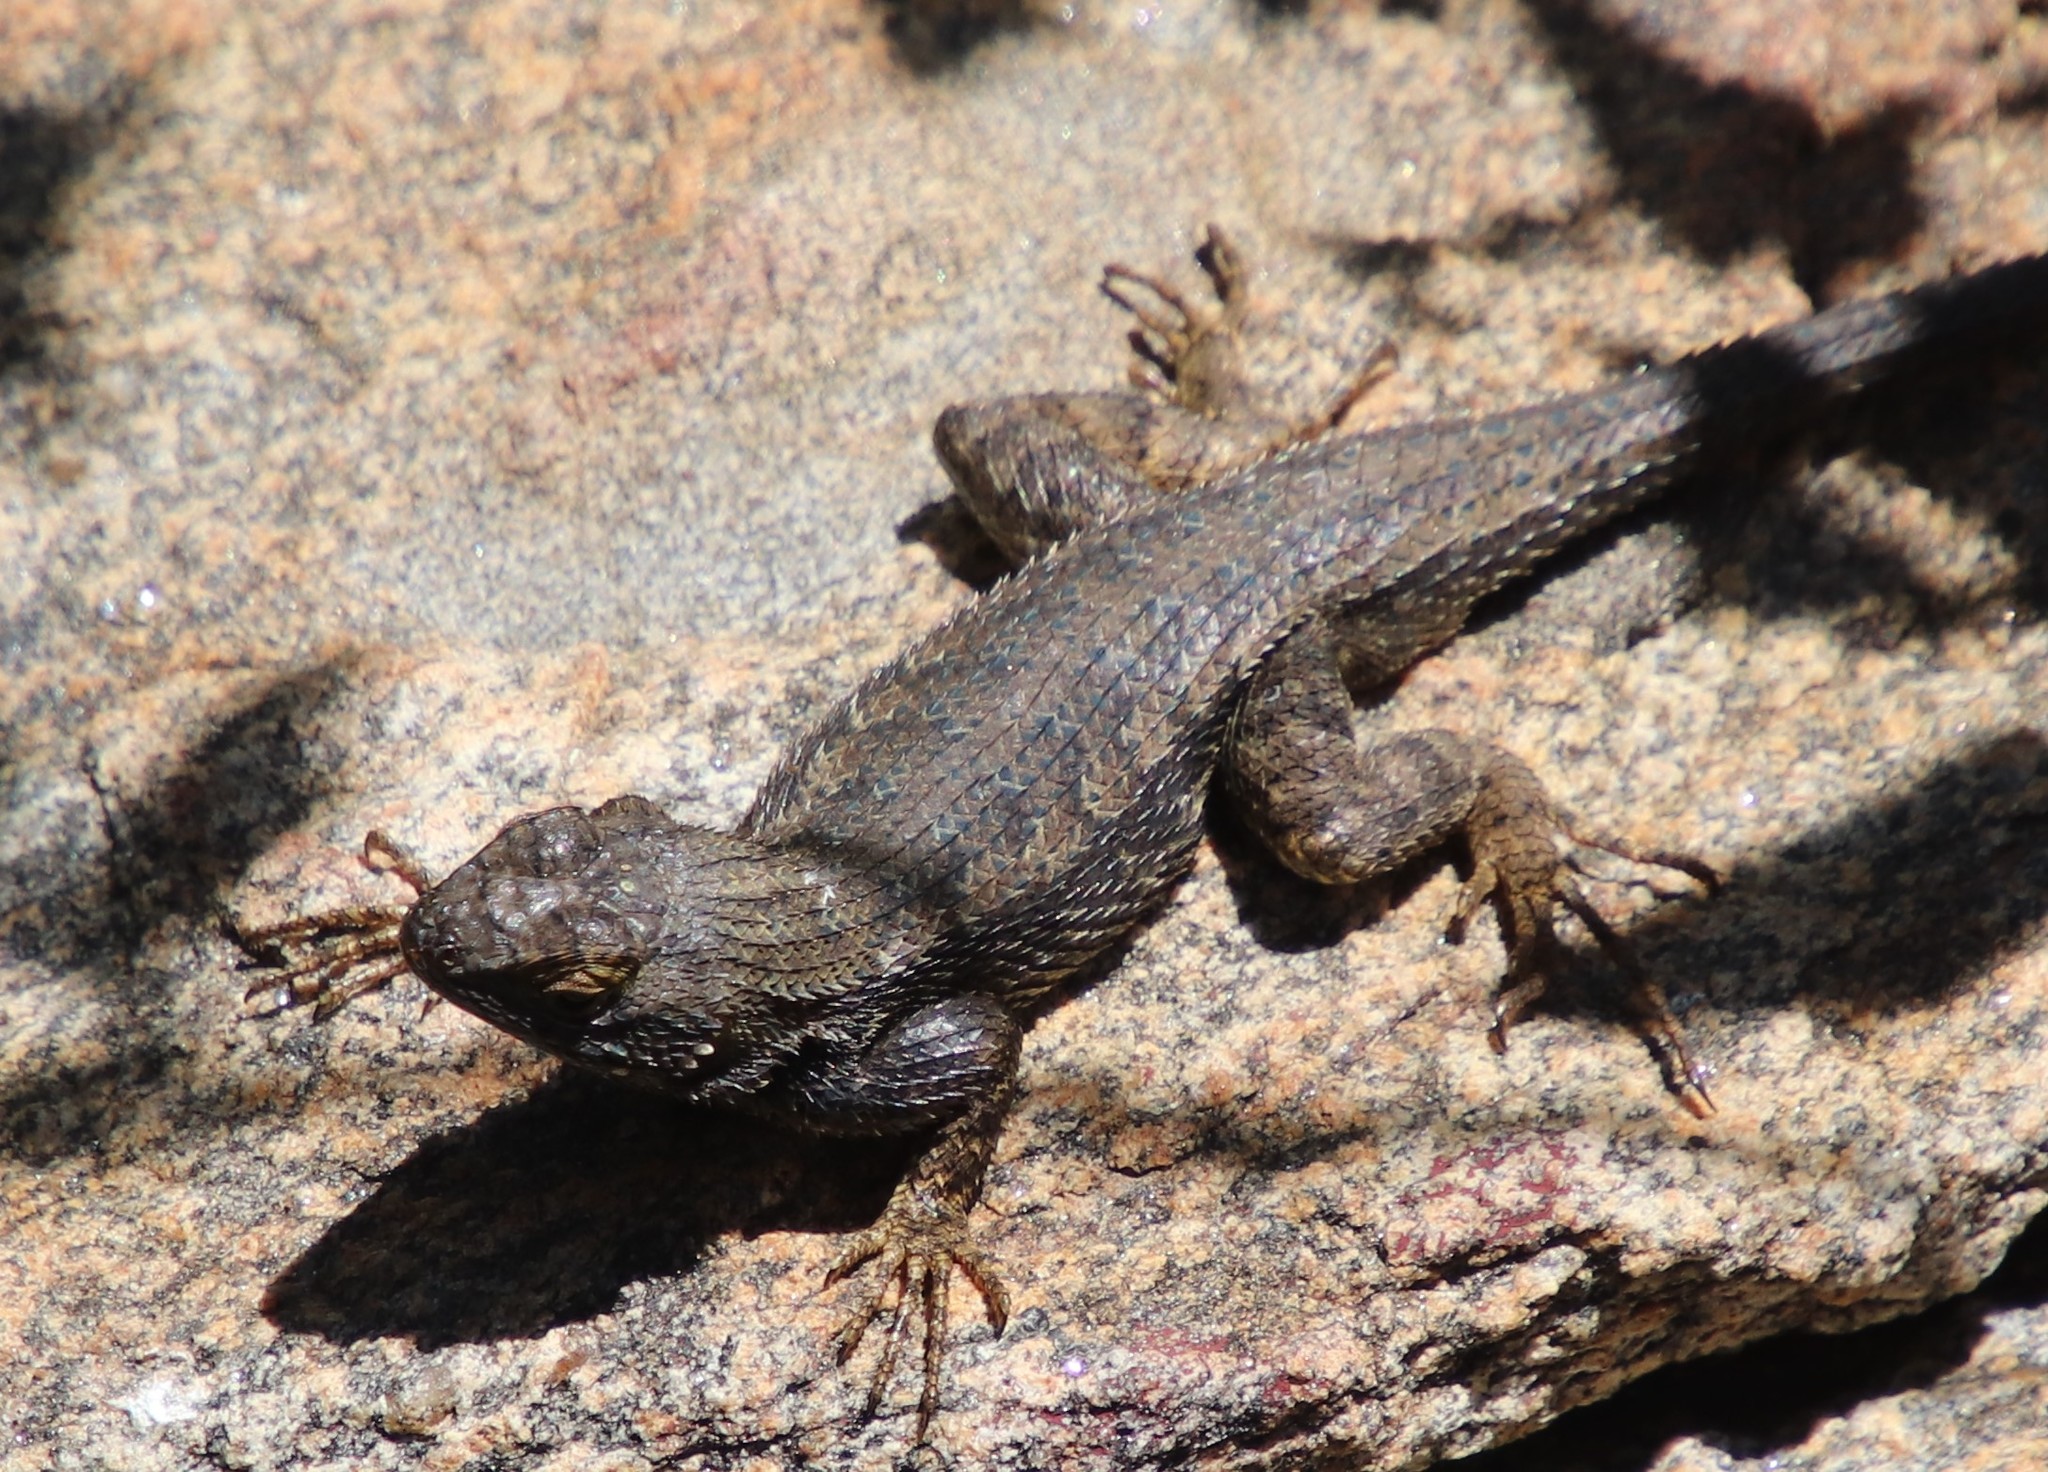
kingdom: Animalia
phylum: Chordata
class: Squamata
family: Phrynosomatidae
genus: Sceloporus
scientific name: Sceloporus occidentalis
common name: Western fence lizard
